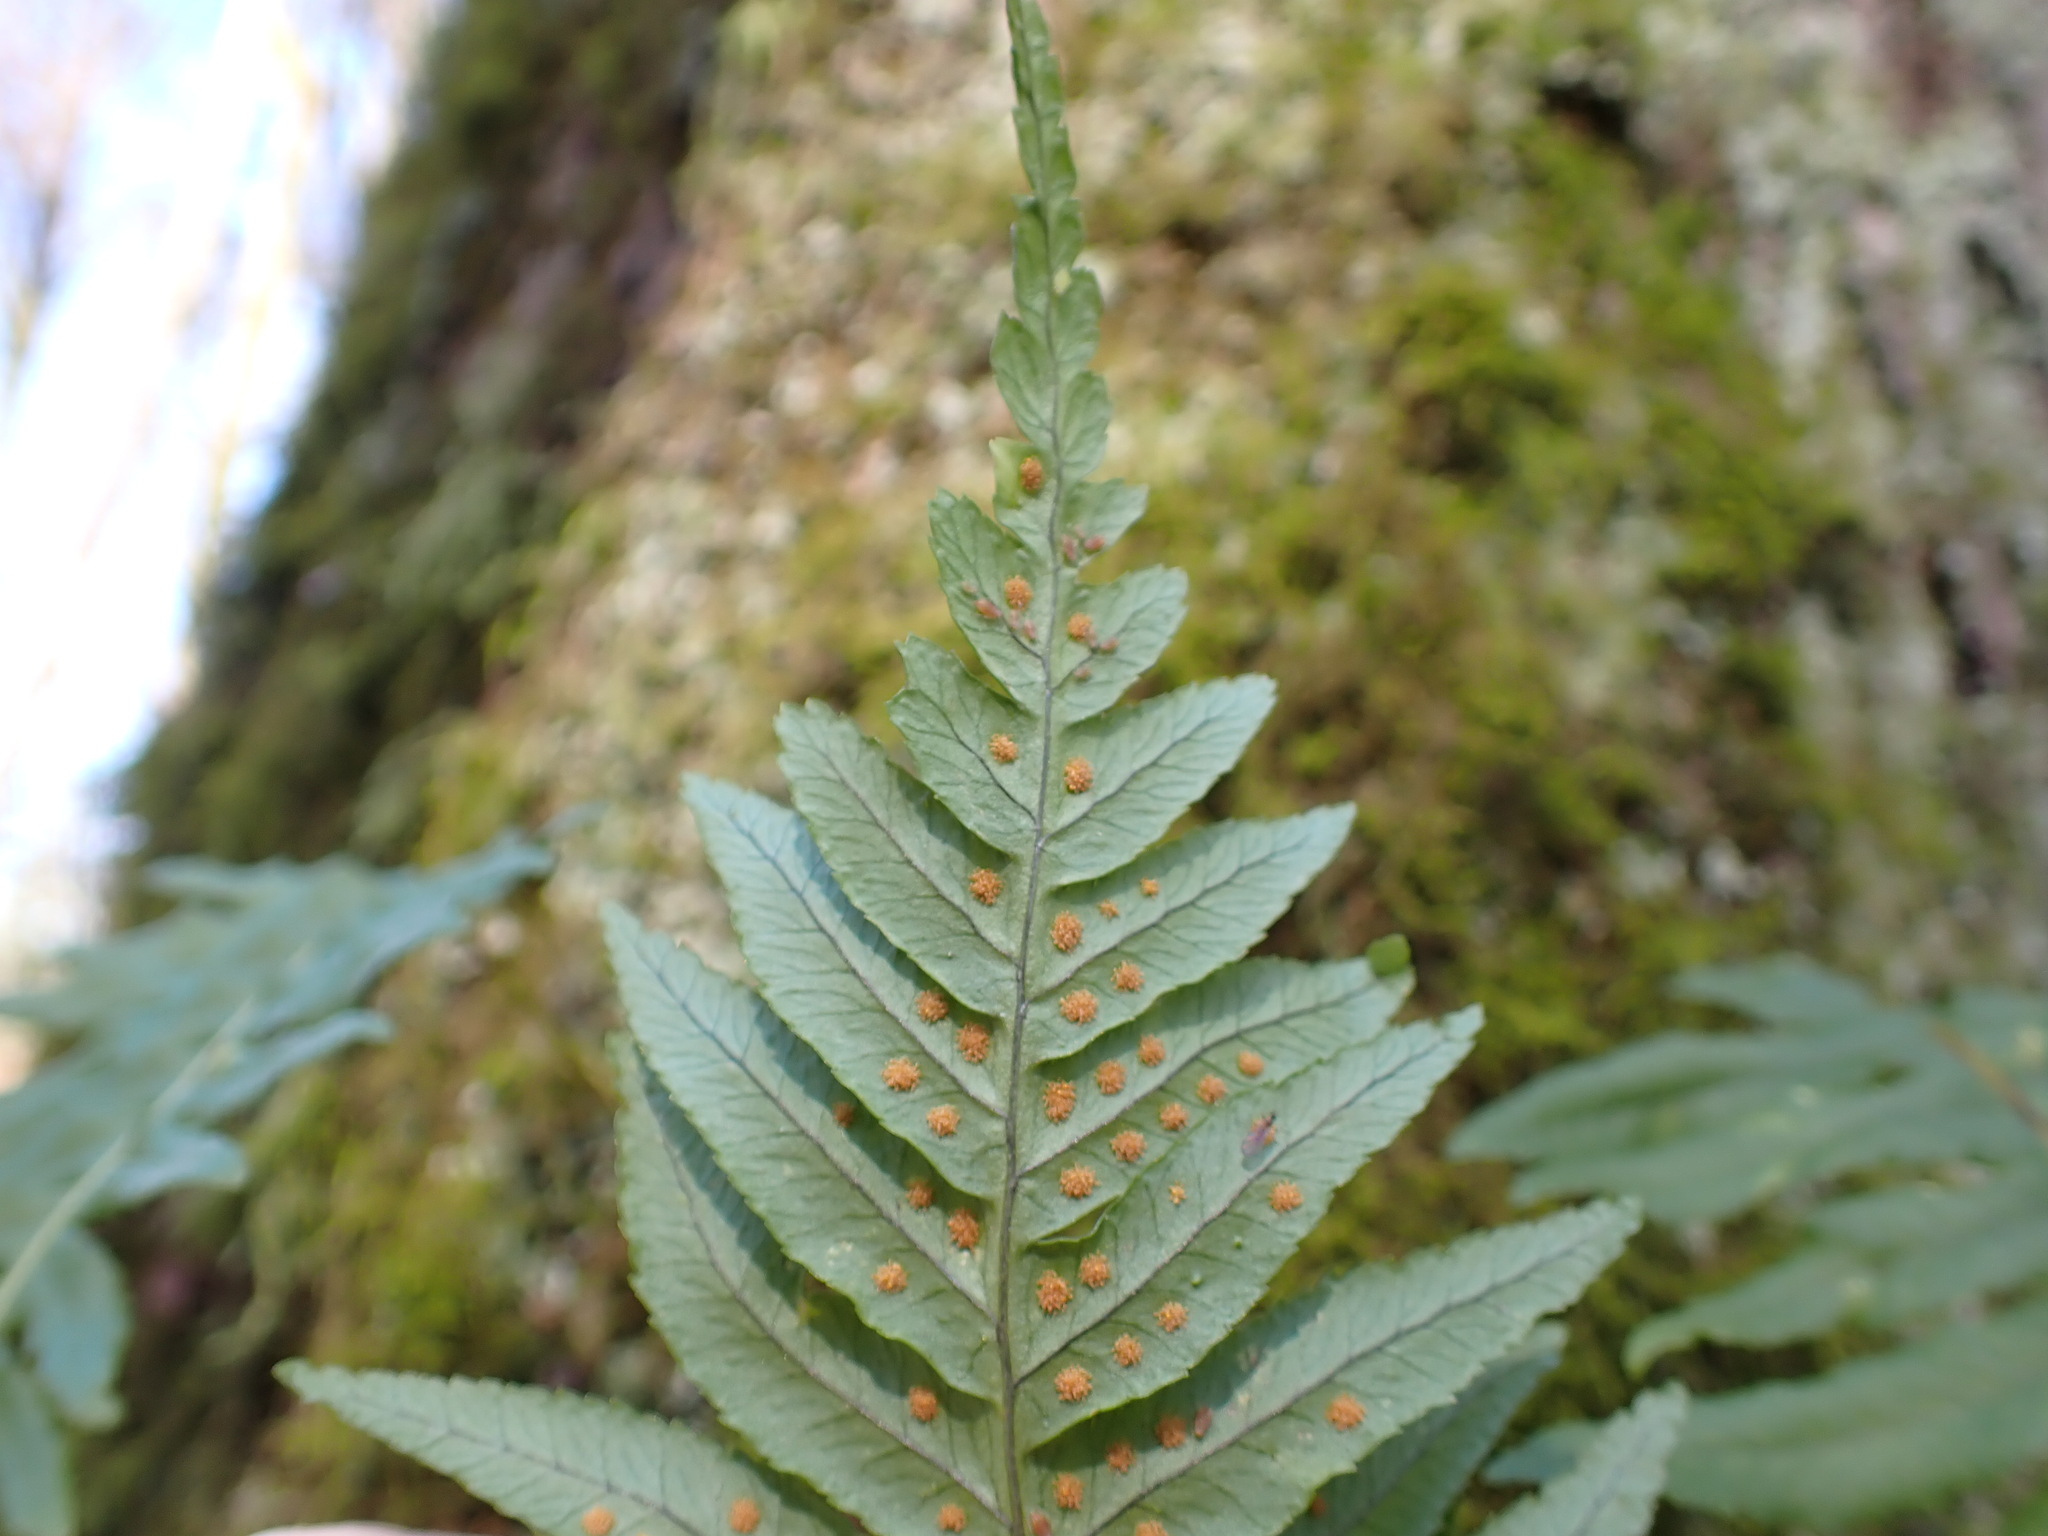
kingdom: Plantae
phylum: Tracheophyta
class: Polypodiopsida
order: Polypodiales
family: Polypodiaceae
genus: Polypodium
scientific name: Polypodium glycyrrhiza
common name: Licorice fern
